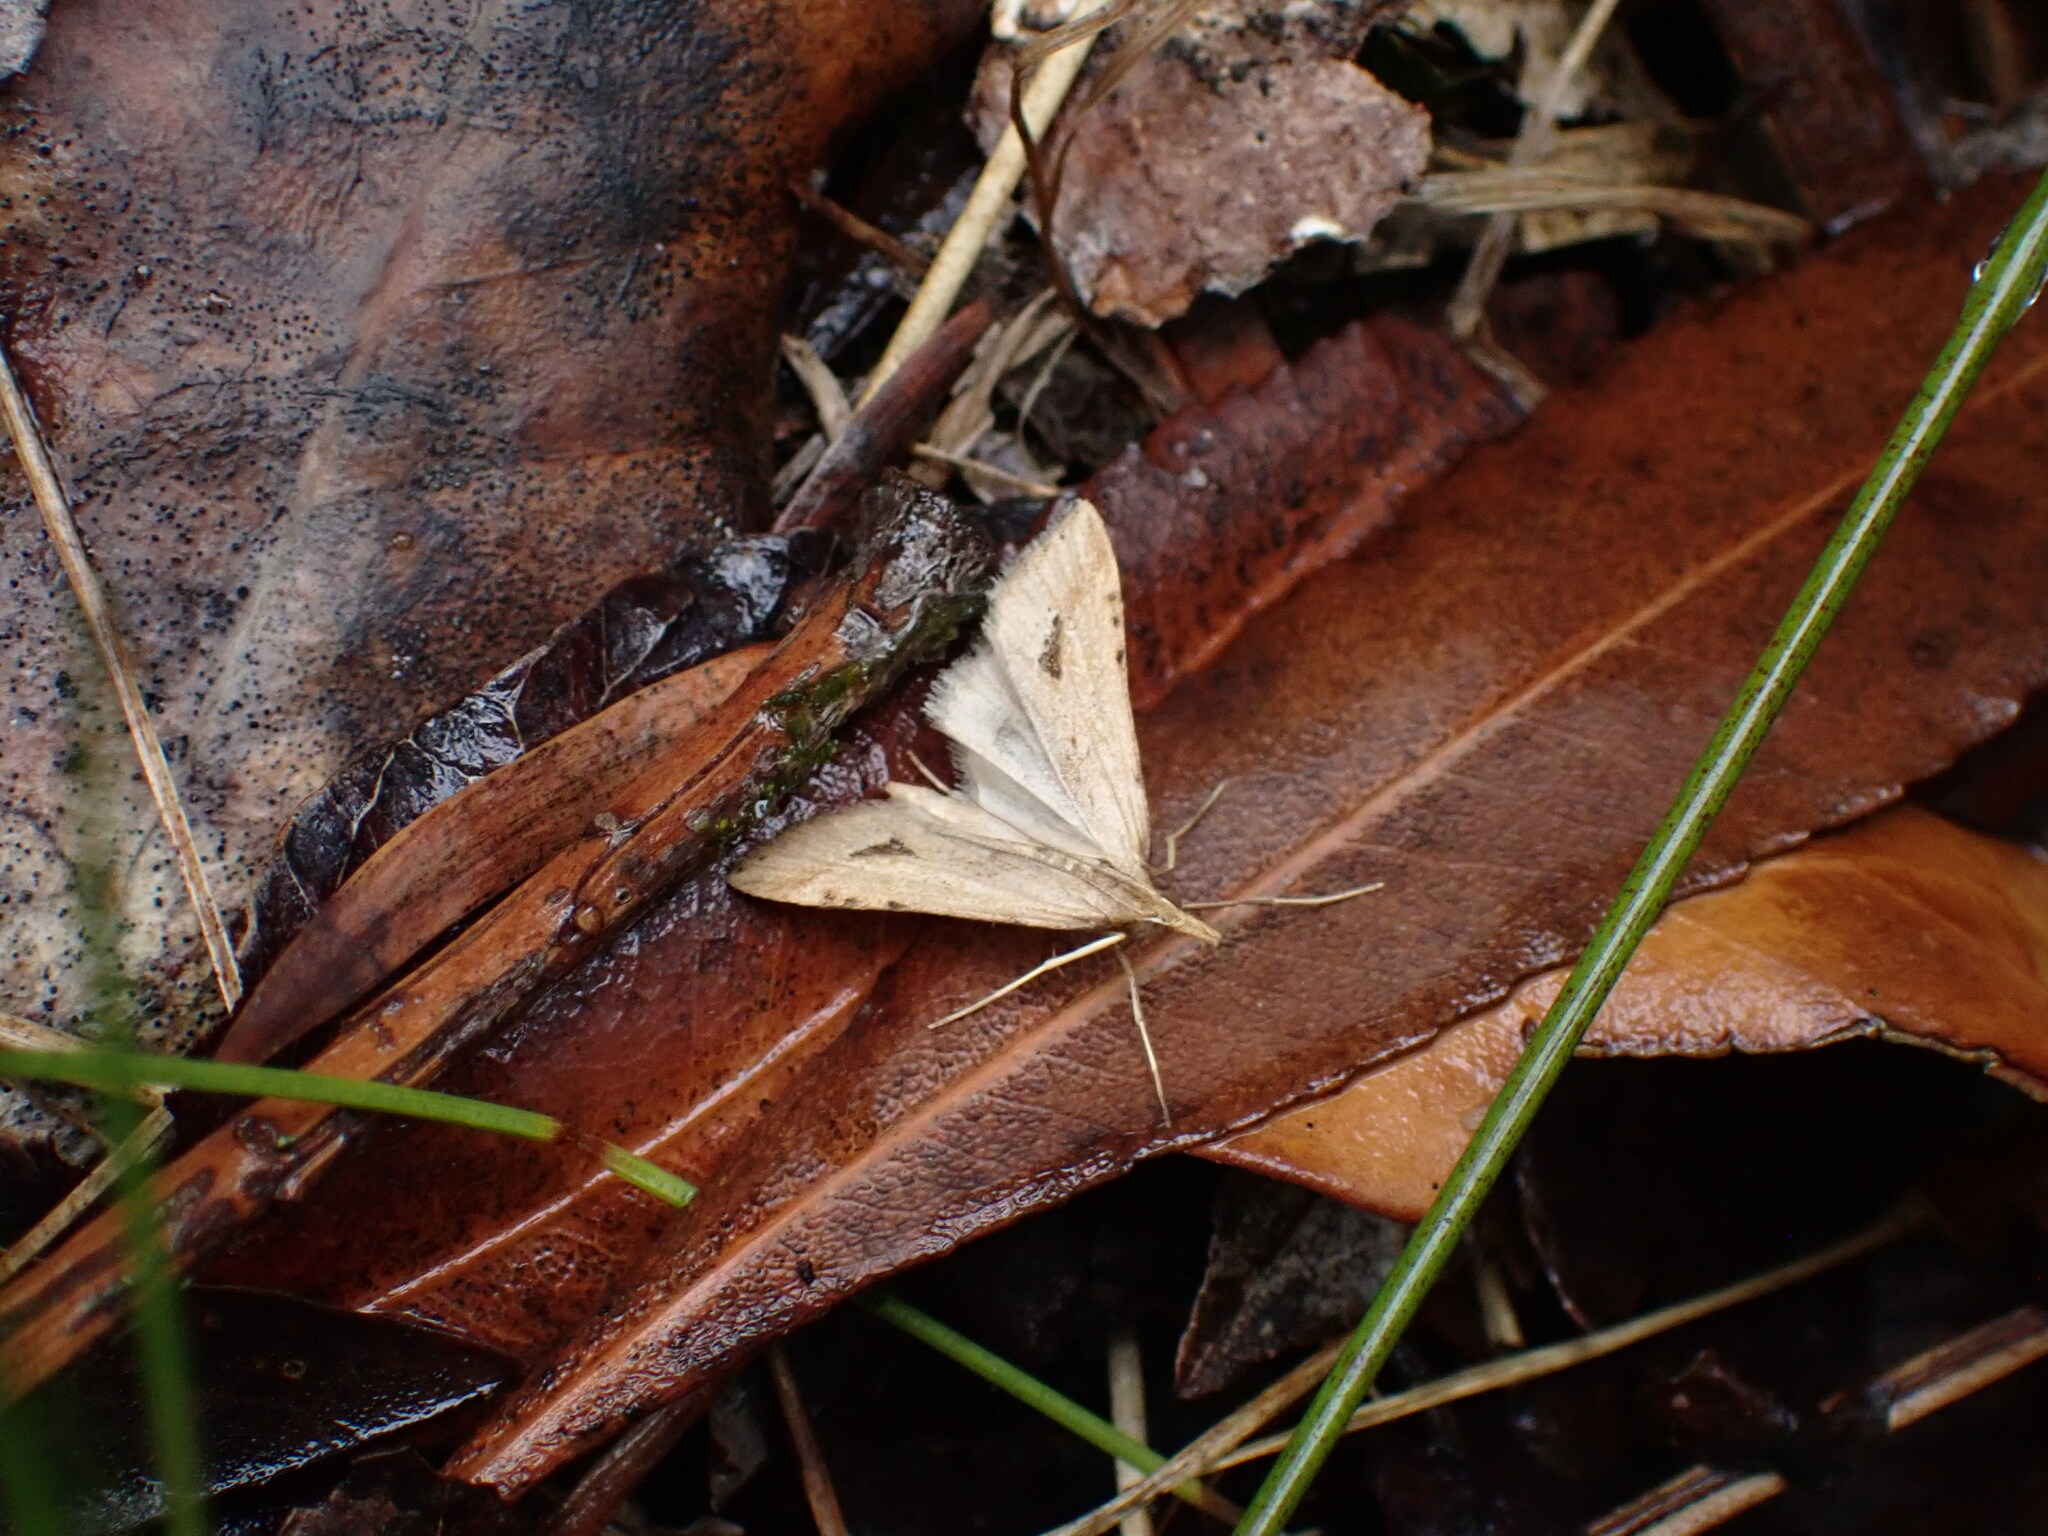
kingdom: Animalia
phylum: Arthropoda
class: Insecta
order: Lepidoptera
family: Crambidae
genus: Diasemia
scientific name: Diasemia monostigma
